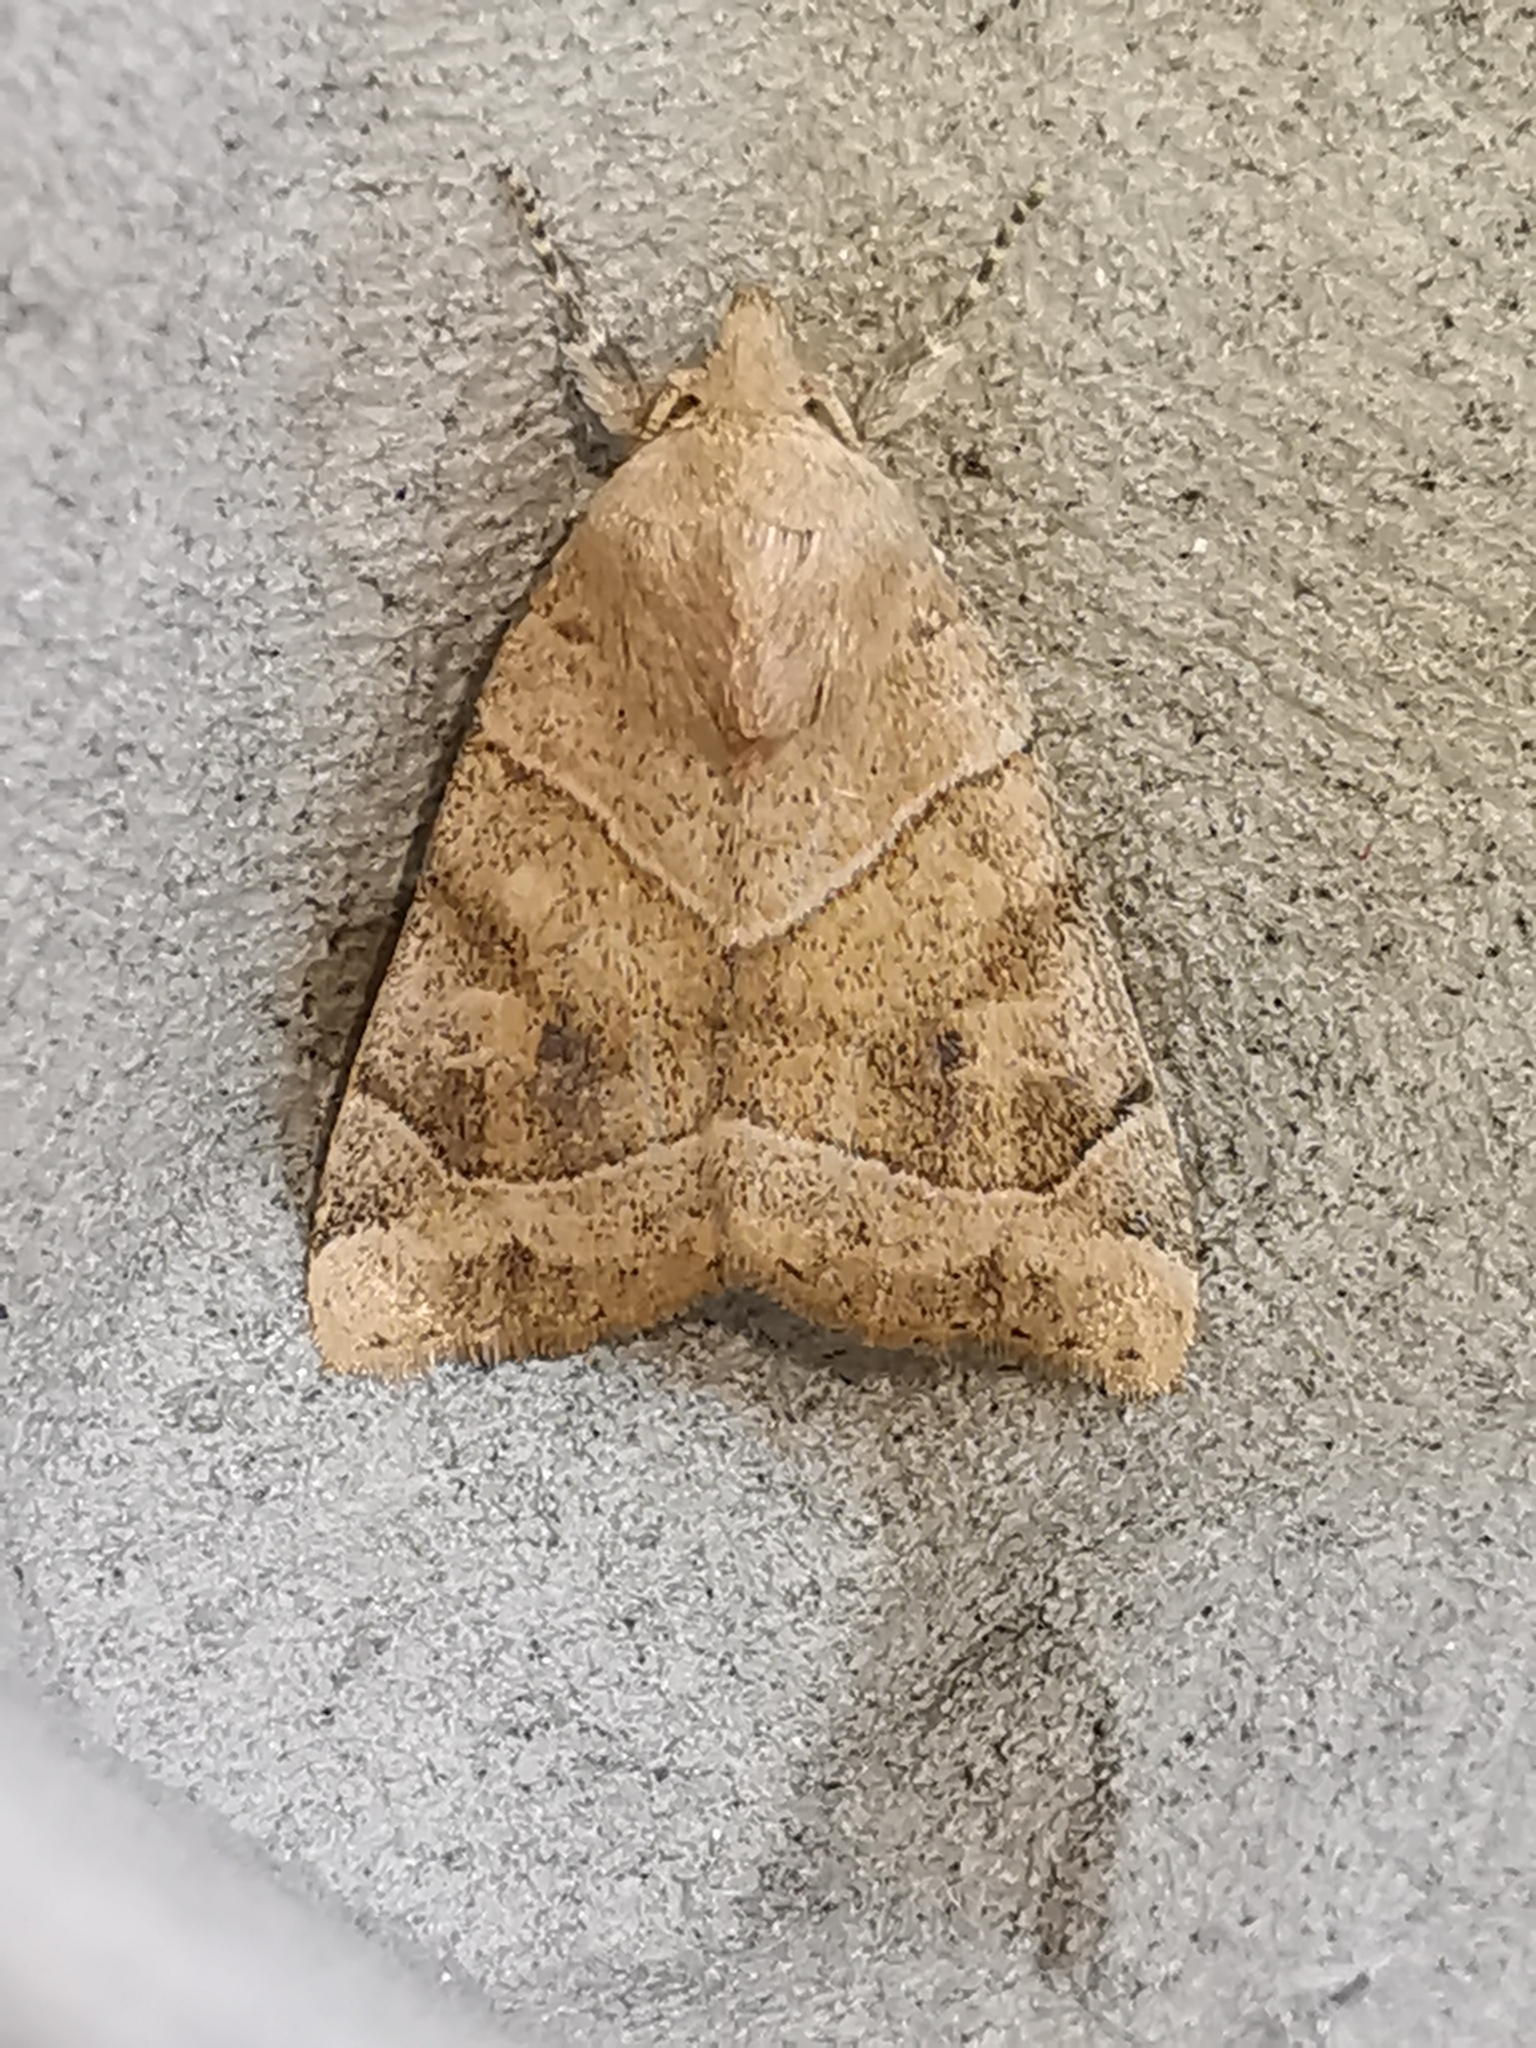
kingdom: Animalia
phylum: Arthropoda
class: Insecta
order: Lepidoptera
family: Noctuidae
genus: Cosmia
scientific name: Cosmia trapezina
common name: Dun-bar
